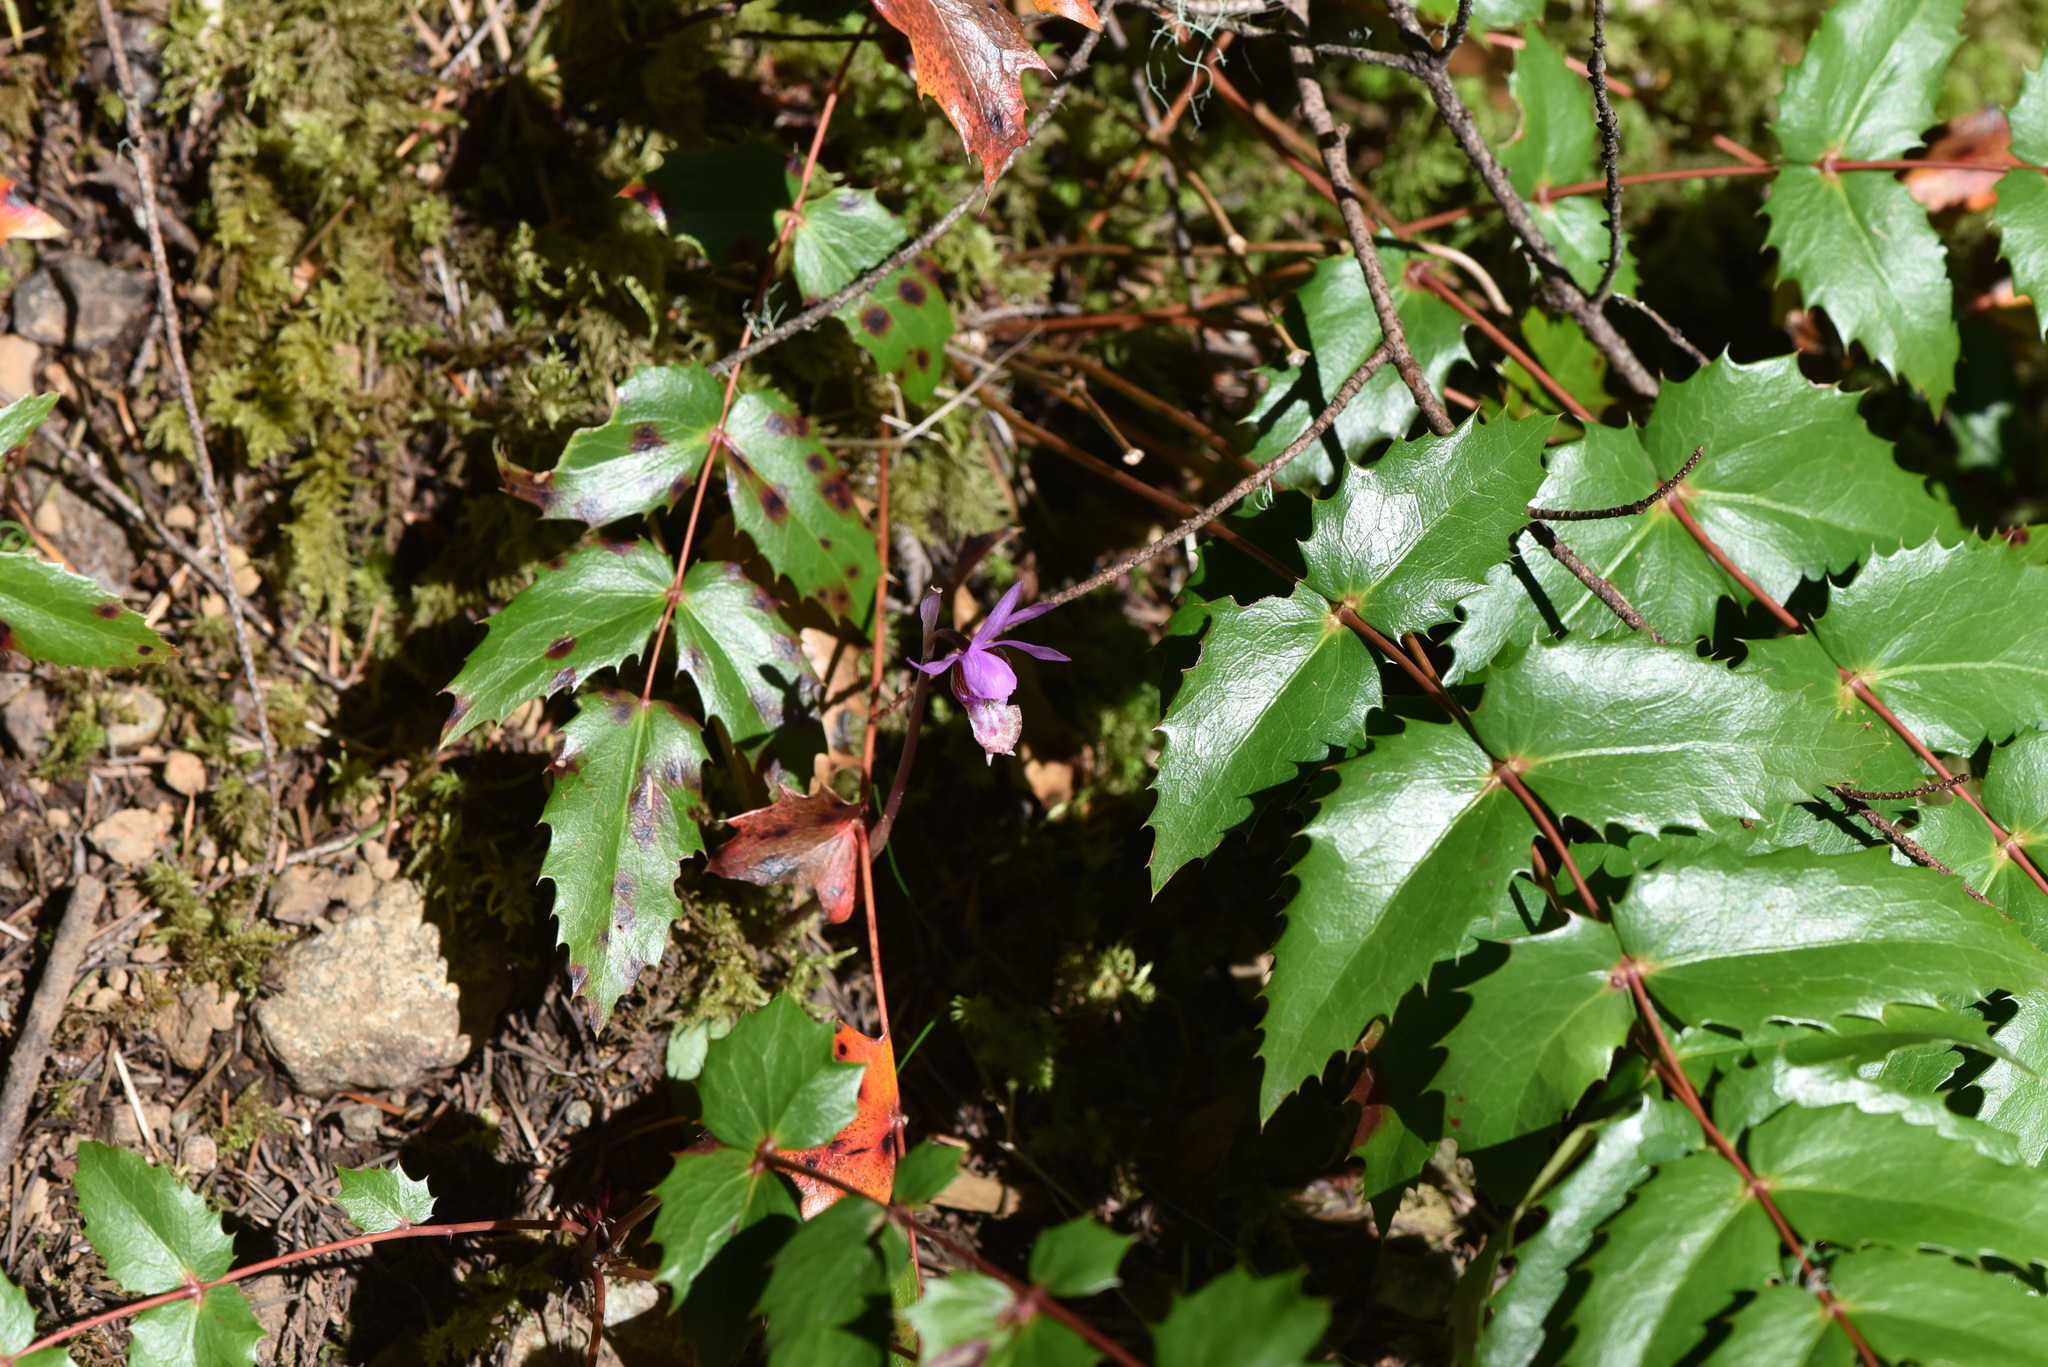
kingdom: Plantae
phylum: Tracheophyta
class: Liliopsida
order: Asparagales
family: Orchidaceae
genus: Calypso
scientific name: Calypso bulbosa
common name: Calypso
